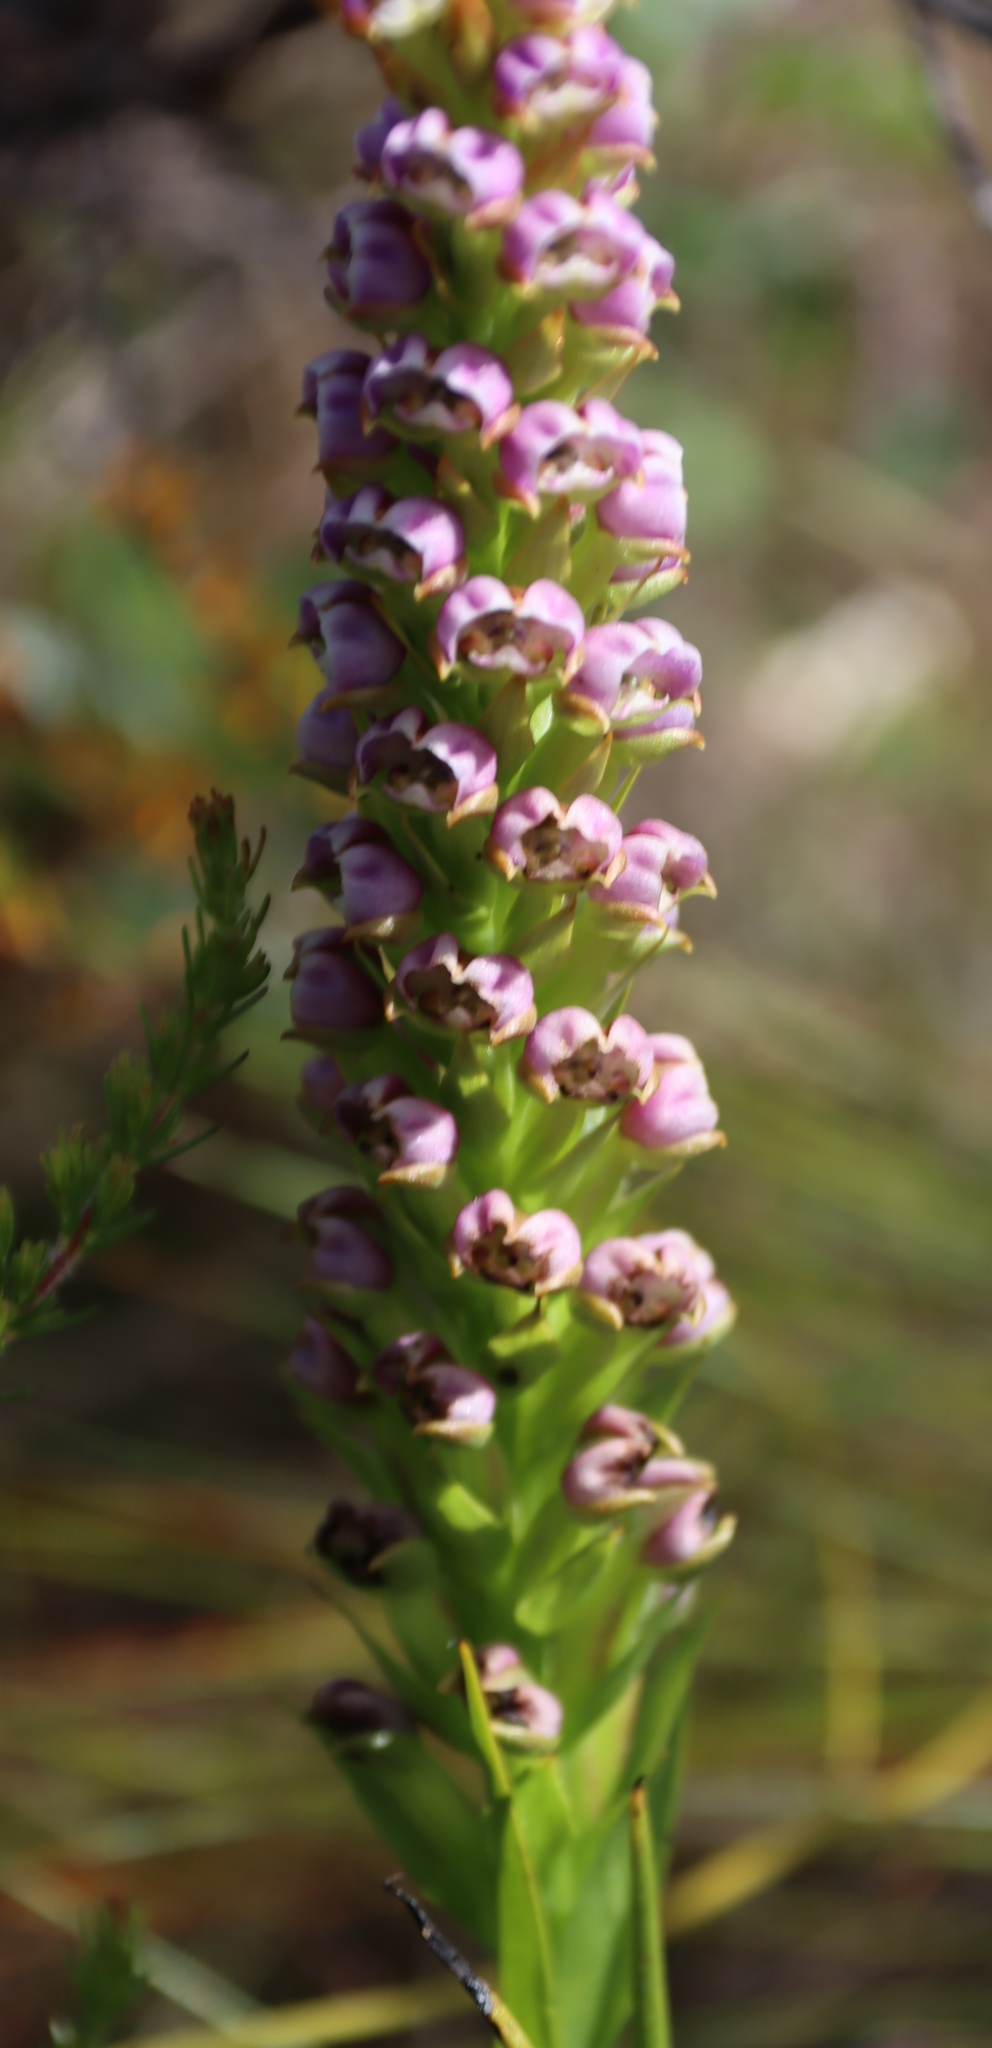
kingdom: Plantae
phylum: Tracheophyta
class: Liliopsida
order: Asparagales
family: Orchidaceae
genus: Evotella
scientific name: Evotella carnosa
